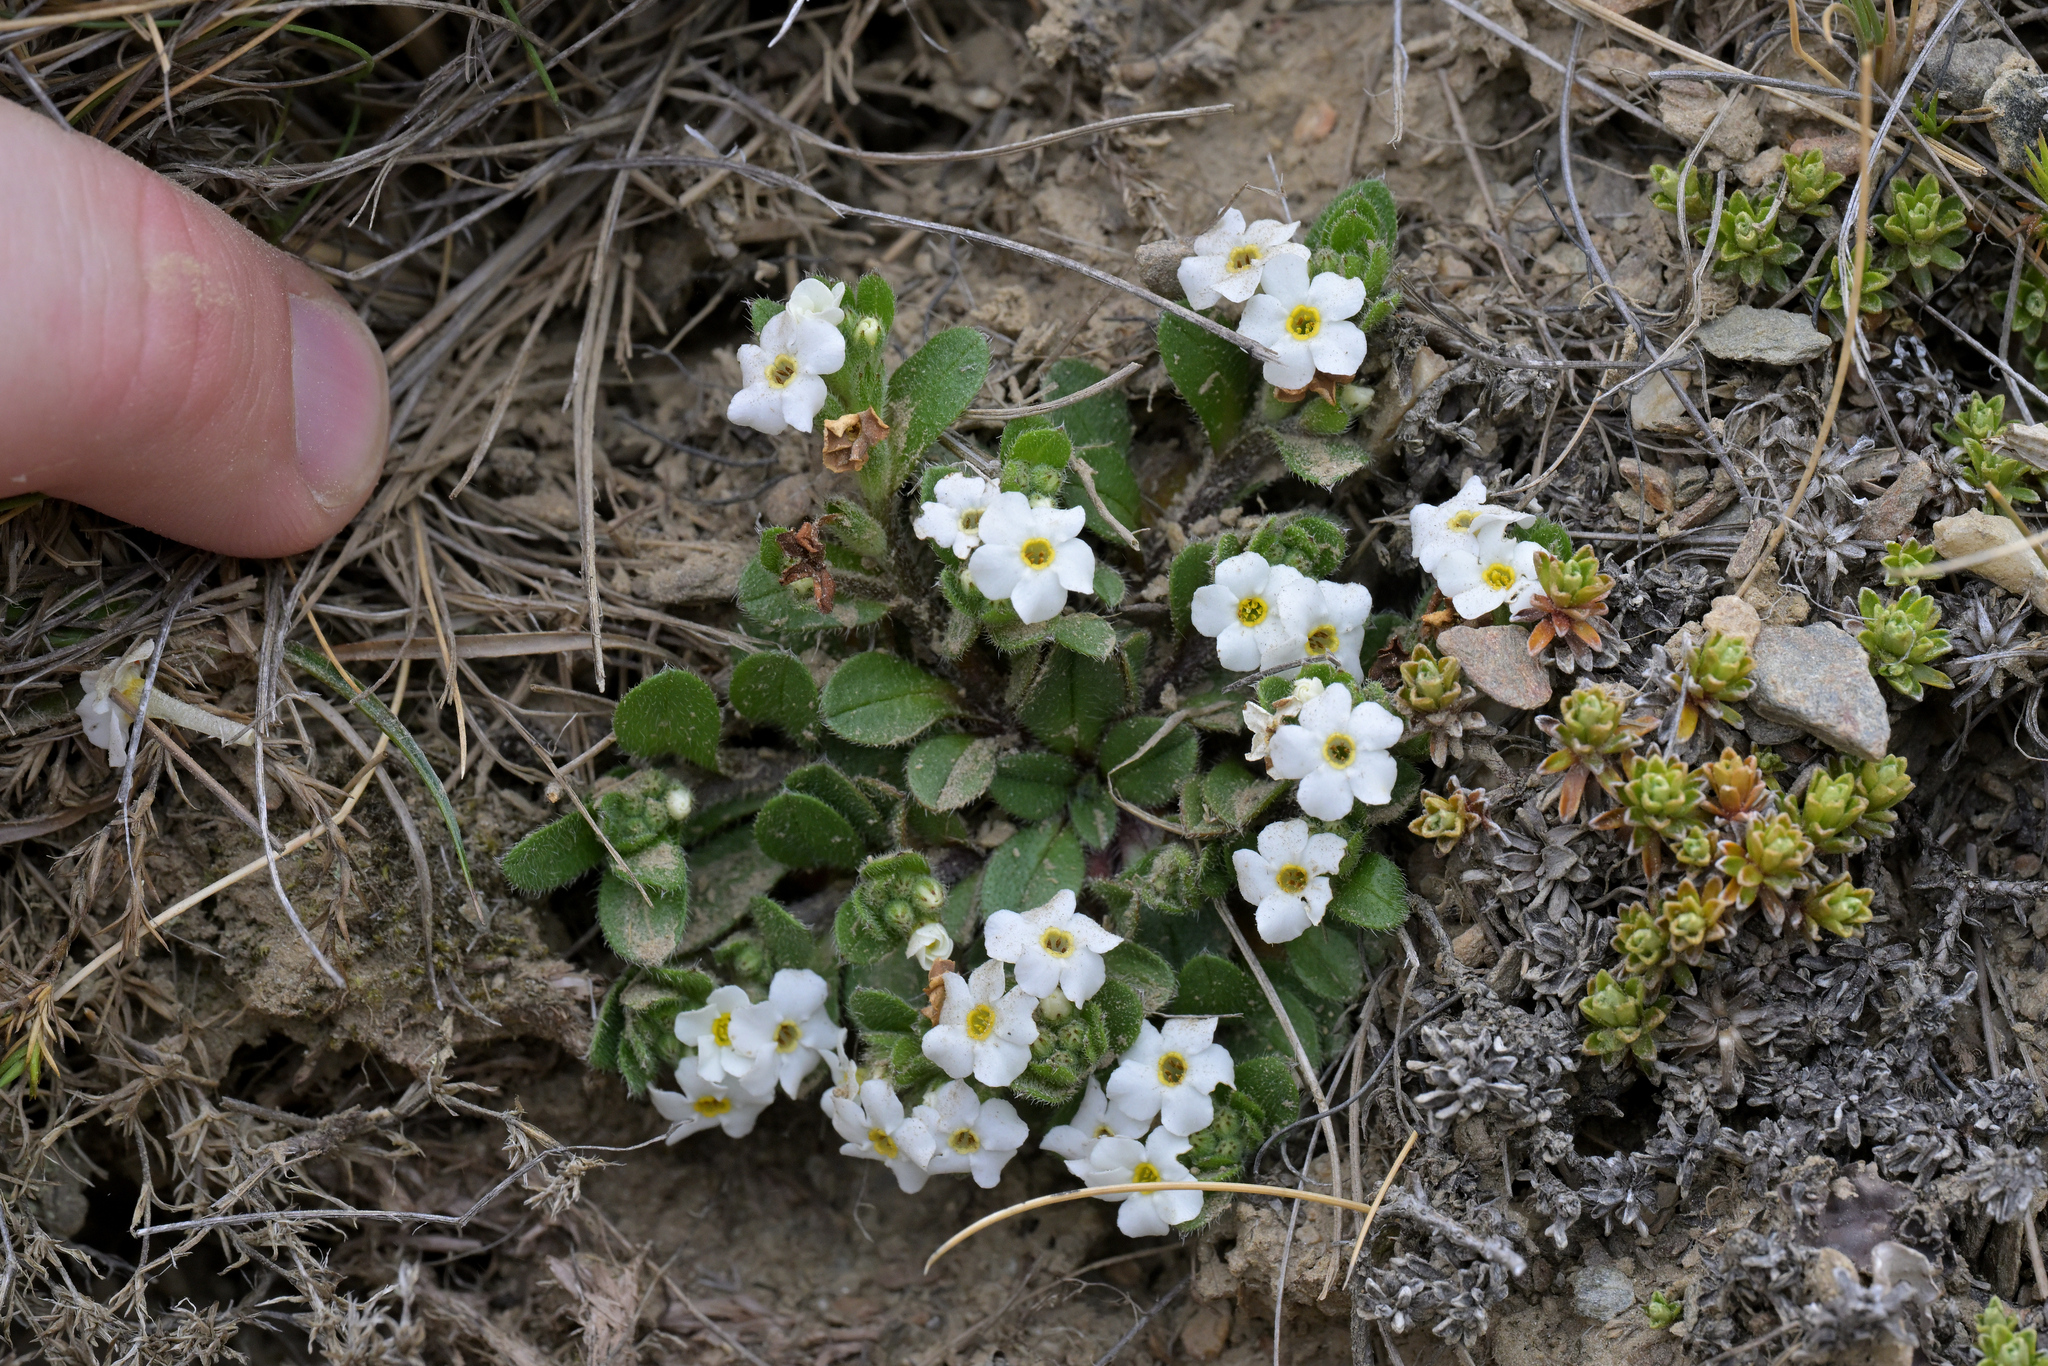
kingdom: Plantae
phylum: Tracheophyta
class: Magnoliopsida
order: Boraginales
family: Boraginaceae
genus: Myosotis
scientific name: Myosotis lyallii
